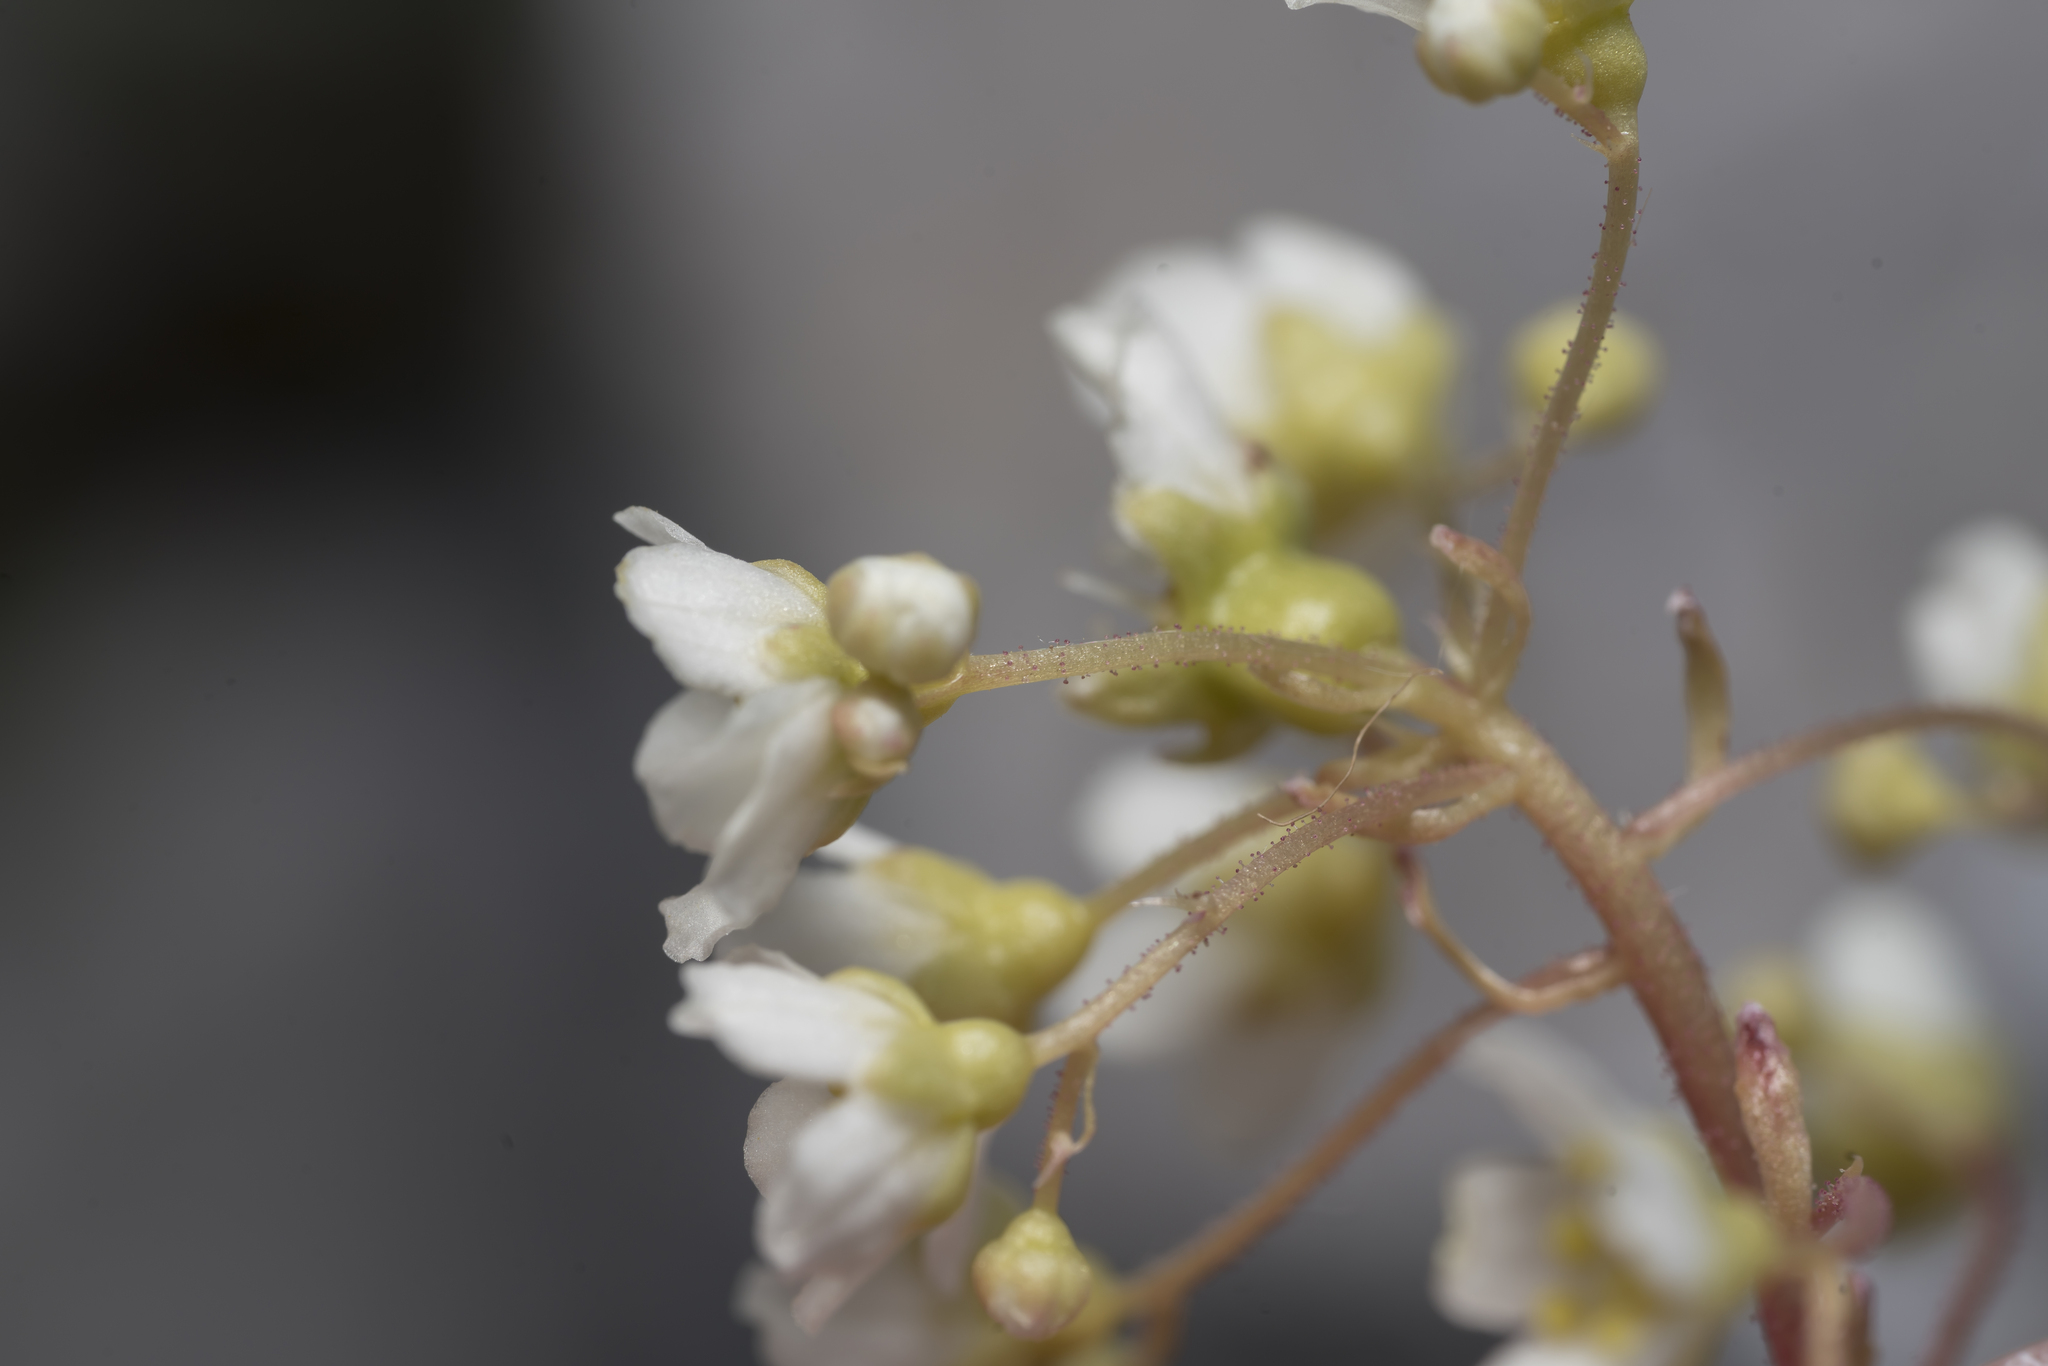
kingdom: Plantae
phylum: Tracheophyta
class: Magnoliopsida
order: Saxifragales
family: Saxifragaceae
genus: Saxifraga
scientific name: Saxifraga paniculata
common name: Livelong saxifrage
